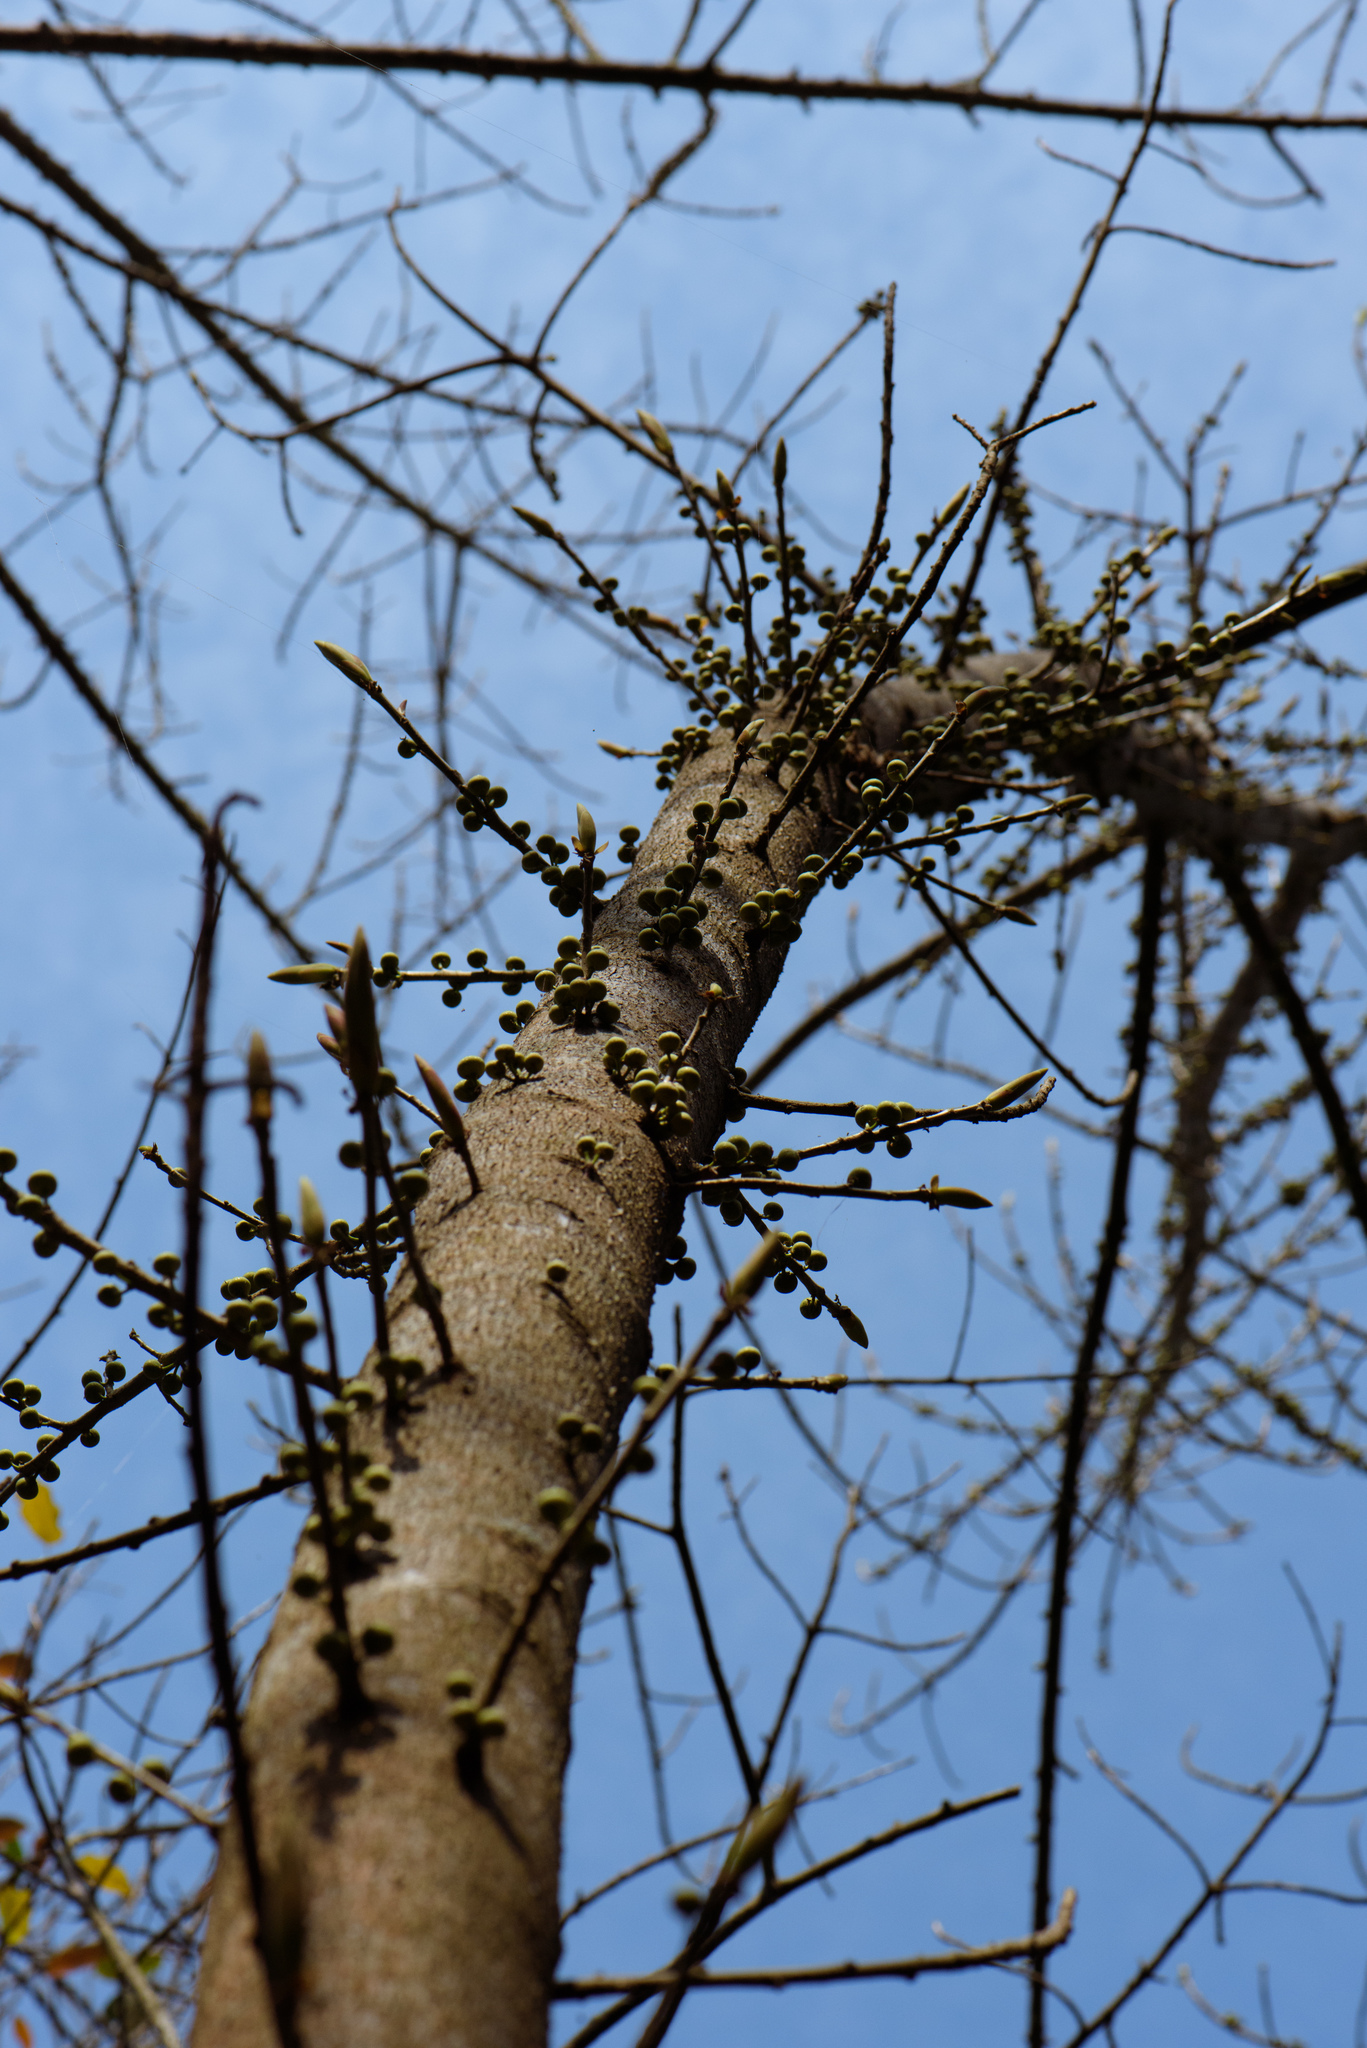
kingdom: Plantae
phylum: Tracheophyta
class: Magnoliopsida
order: Rosales
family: Moraceae
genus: Ficus
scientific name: Ficus subpisocarpa
